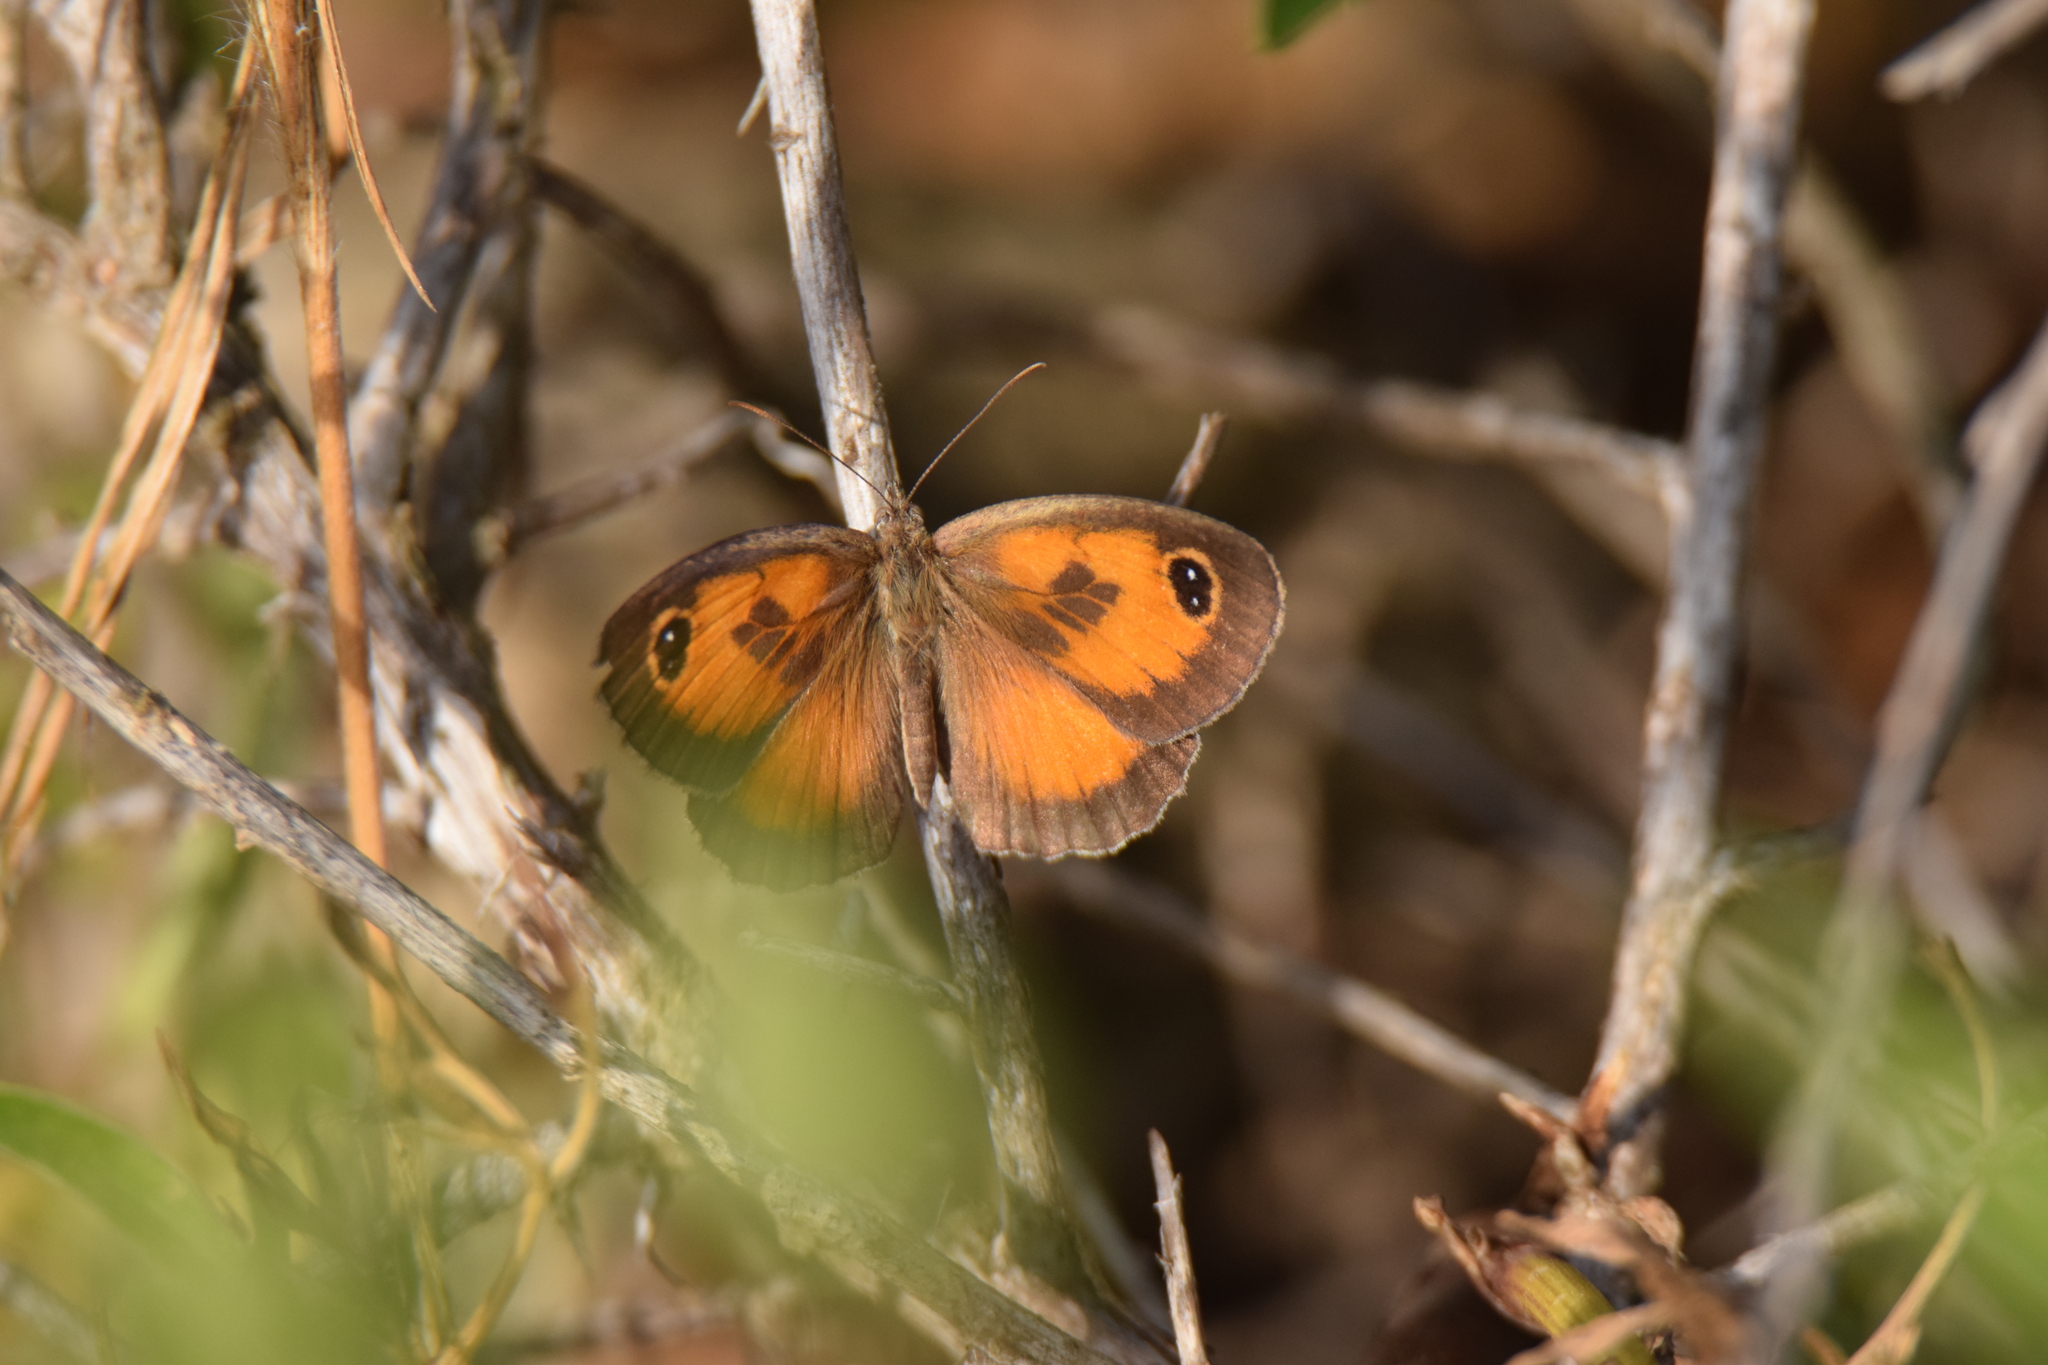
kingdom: Animalia
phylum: Arthropoda
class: Insecta
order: Lepidoptera
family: Nymphalidae
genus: Pyronia
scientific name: Pyronia cecilia
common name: Southern gatekeeper
